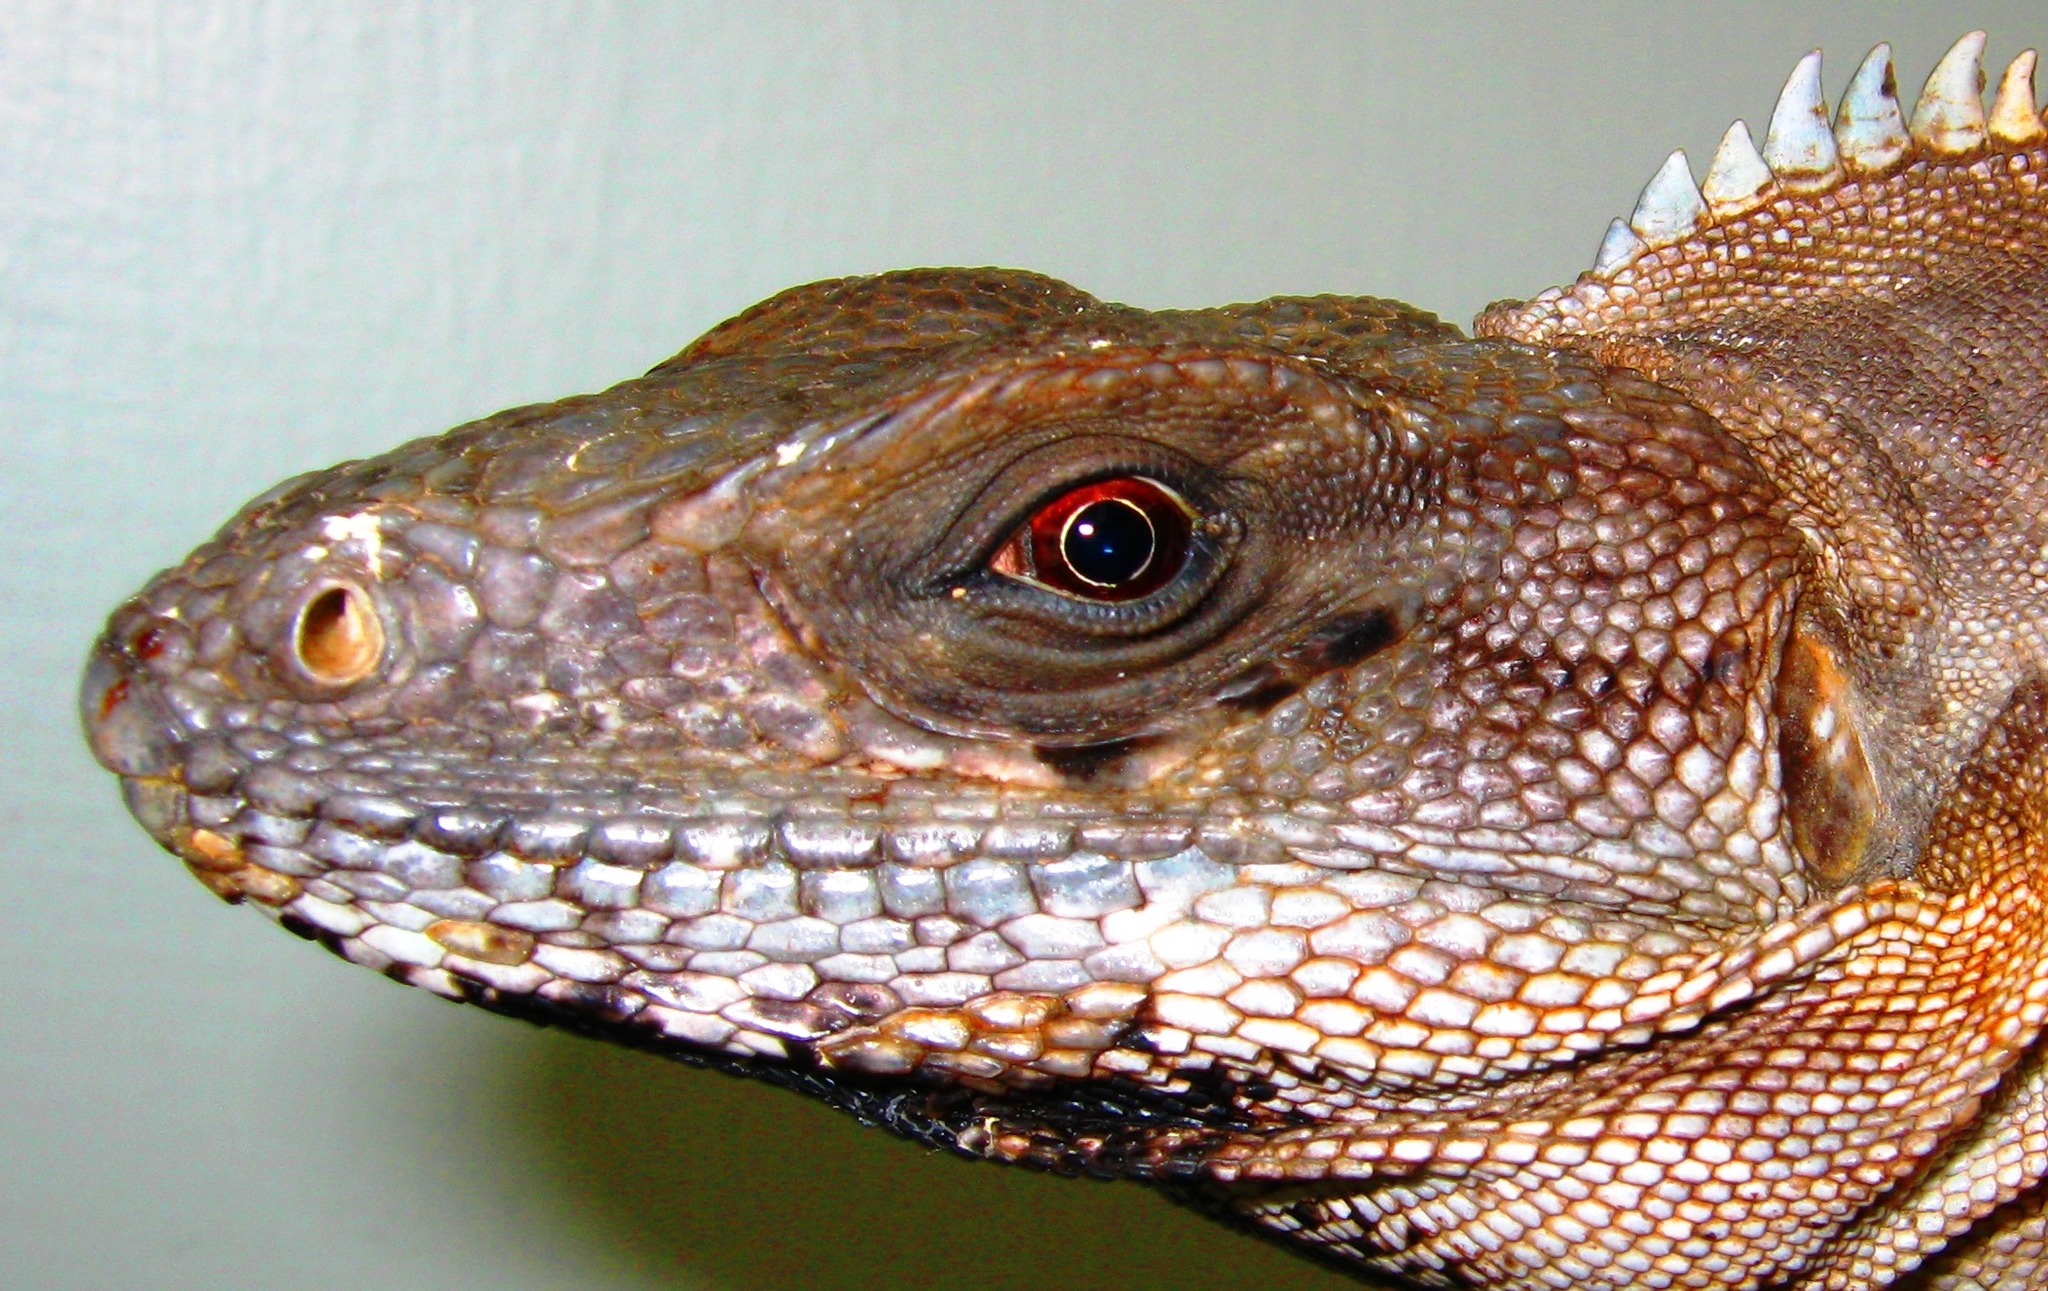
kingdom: Animalia
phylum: Chordata
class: Squamata
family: Iguanidae
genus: Ctenosaura
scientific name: Ctenosaura similis
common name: Black spiny-tailed iguana
